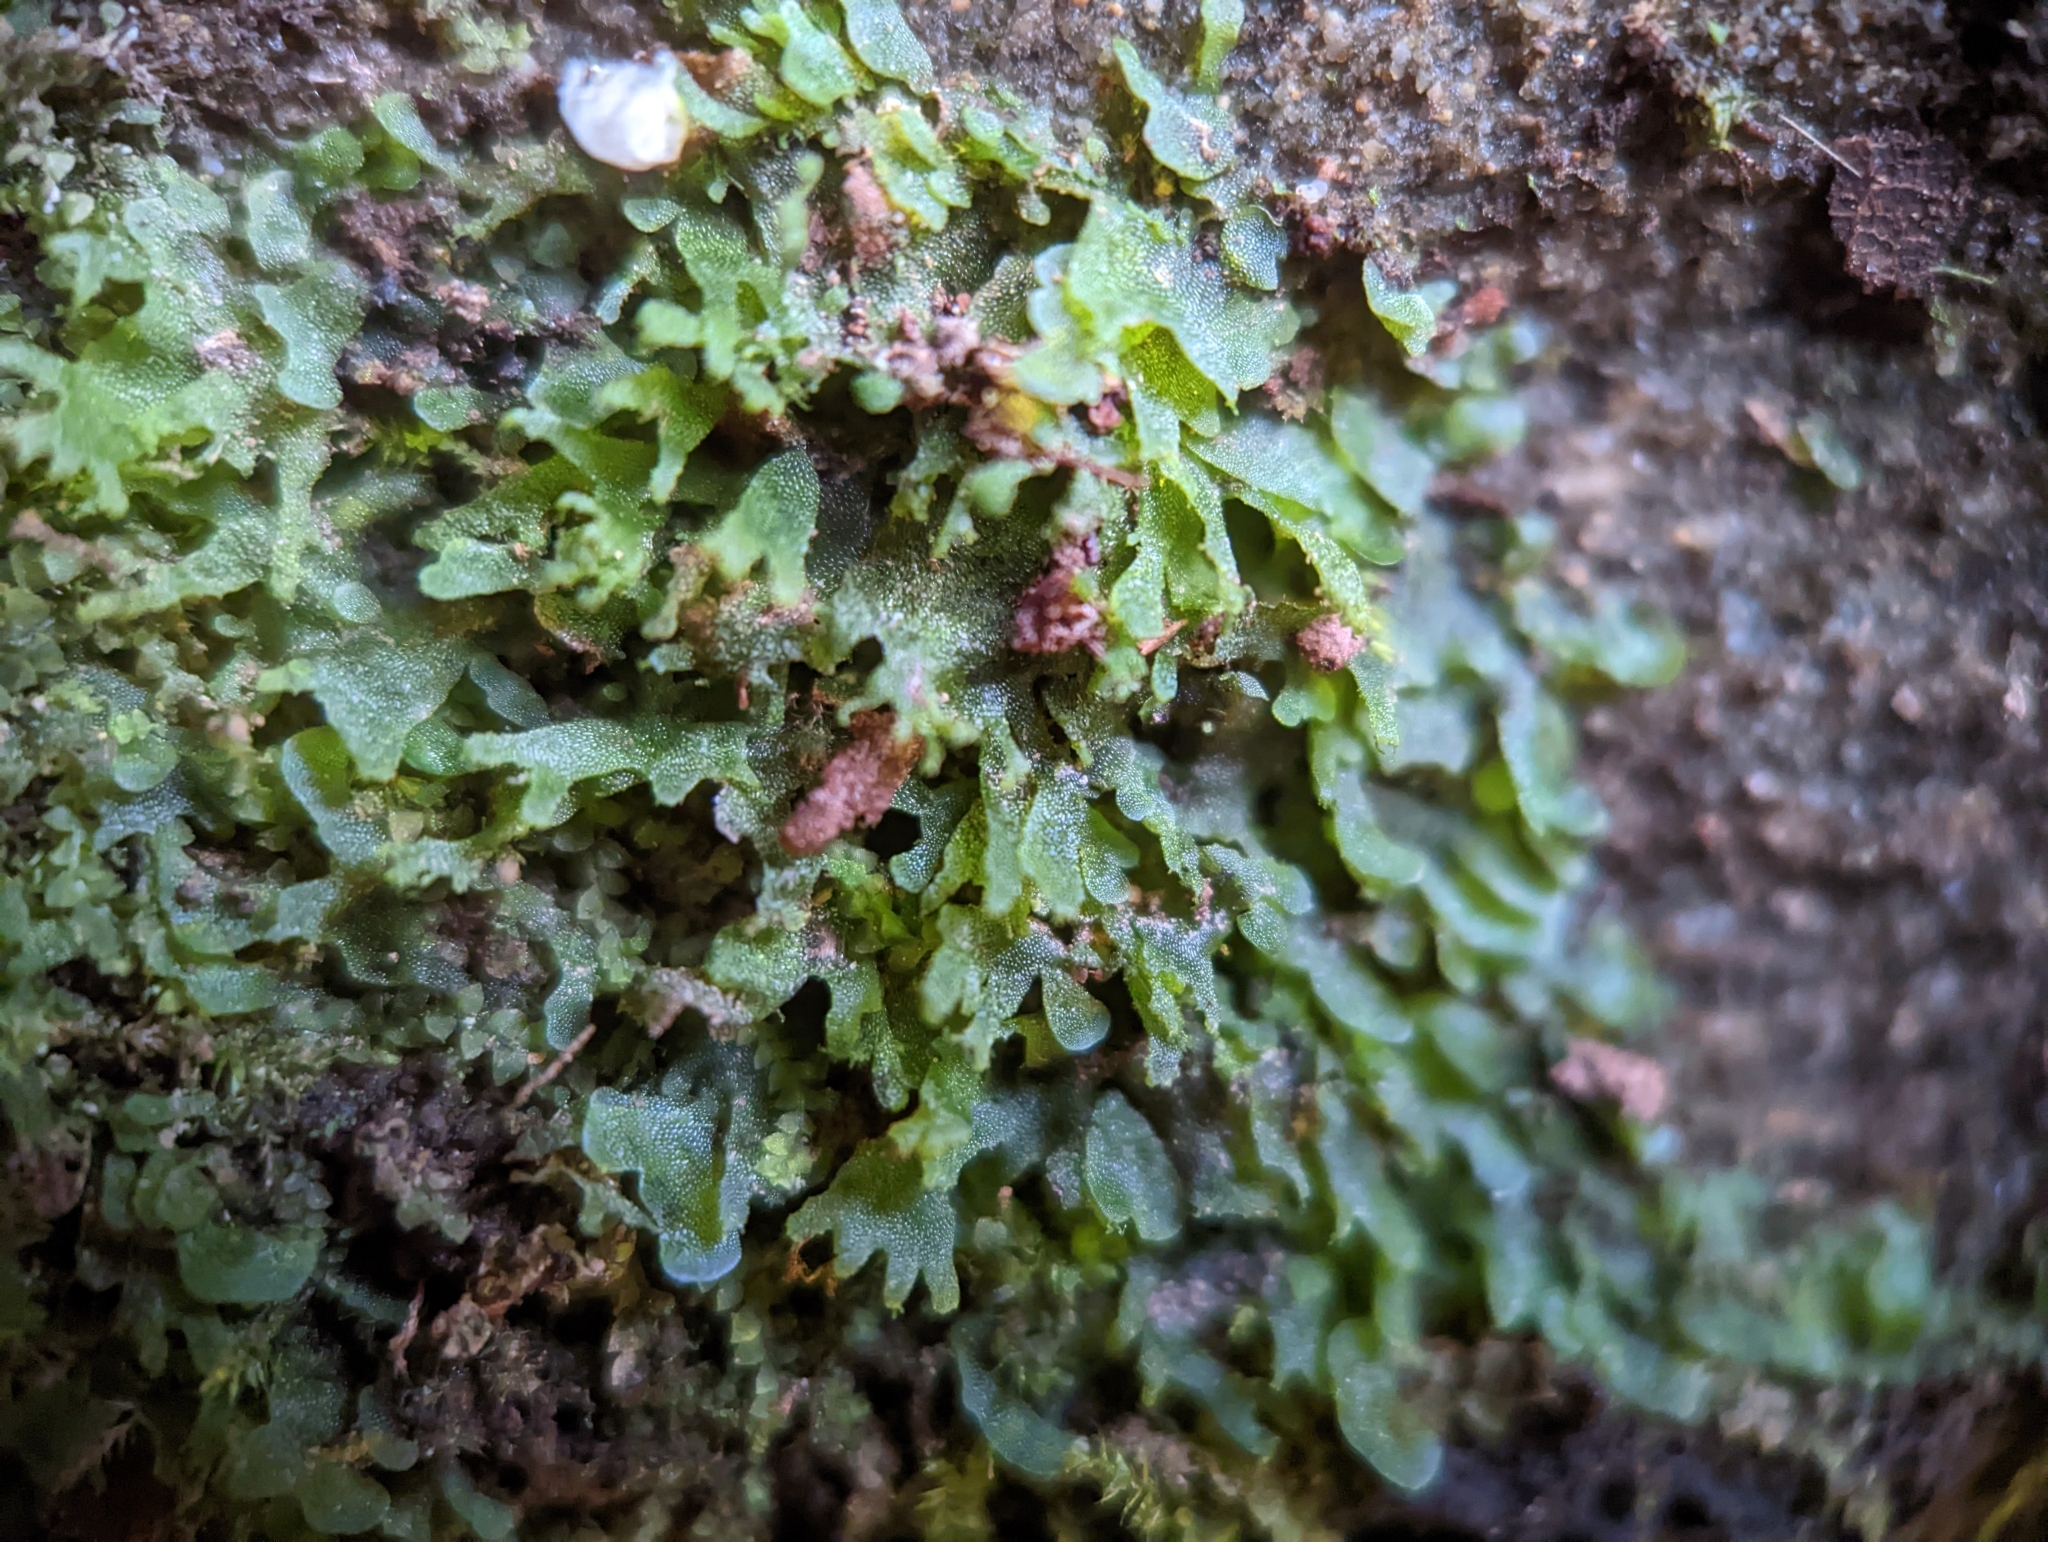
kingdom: Plantae
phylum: Tracheophyta
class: Polypodiopsida
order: Polypodiales
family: Pteridaceae
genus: Vittaria
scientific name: Vittaria appalachiana
